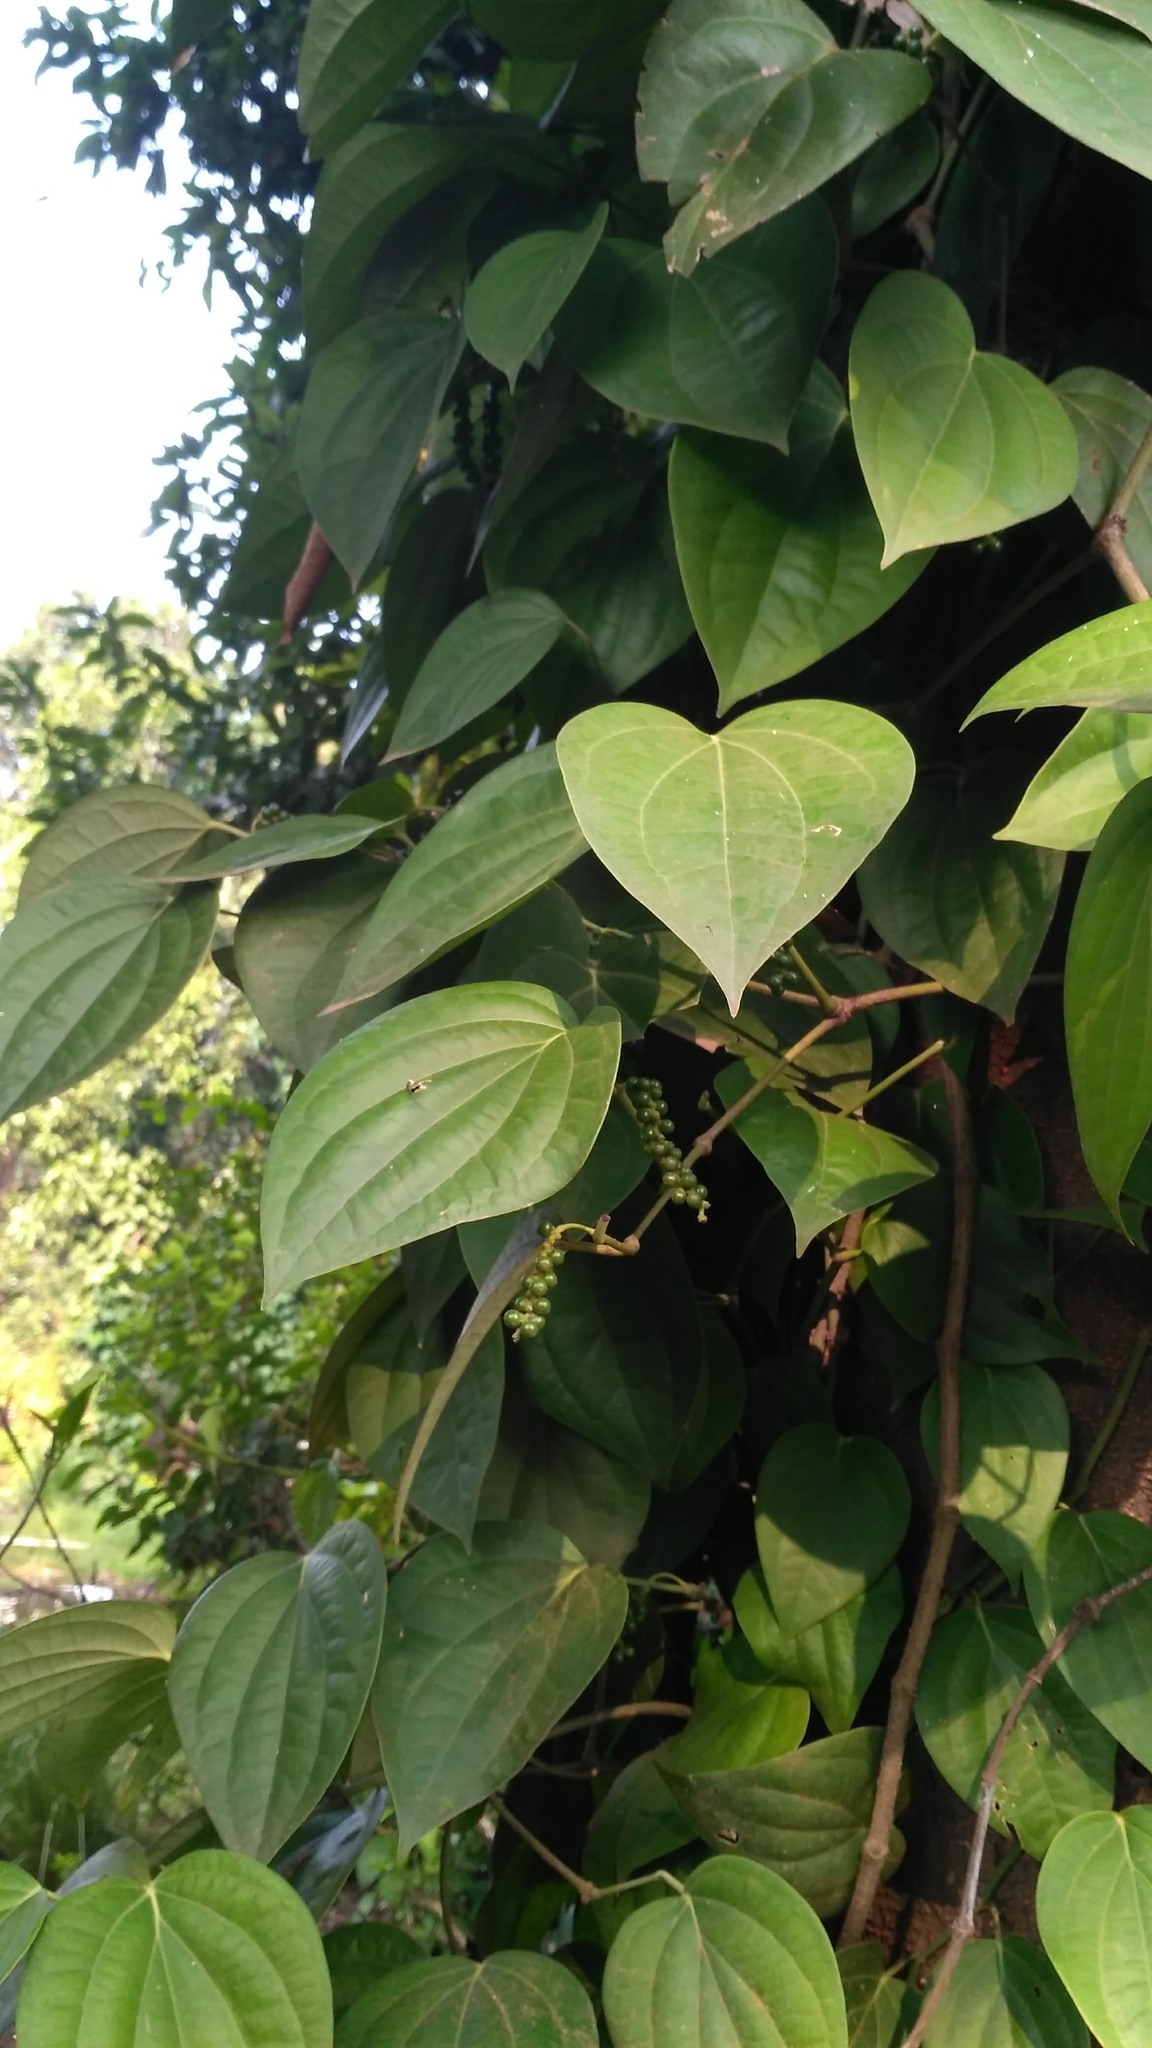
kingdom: Plantae
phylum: Tracheophyta
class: Magnoliopsida
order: Piperales
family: Piperaceae
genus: Piper
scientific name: Piper nigrum
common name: Black pepper
